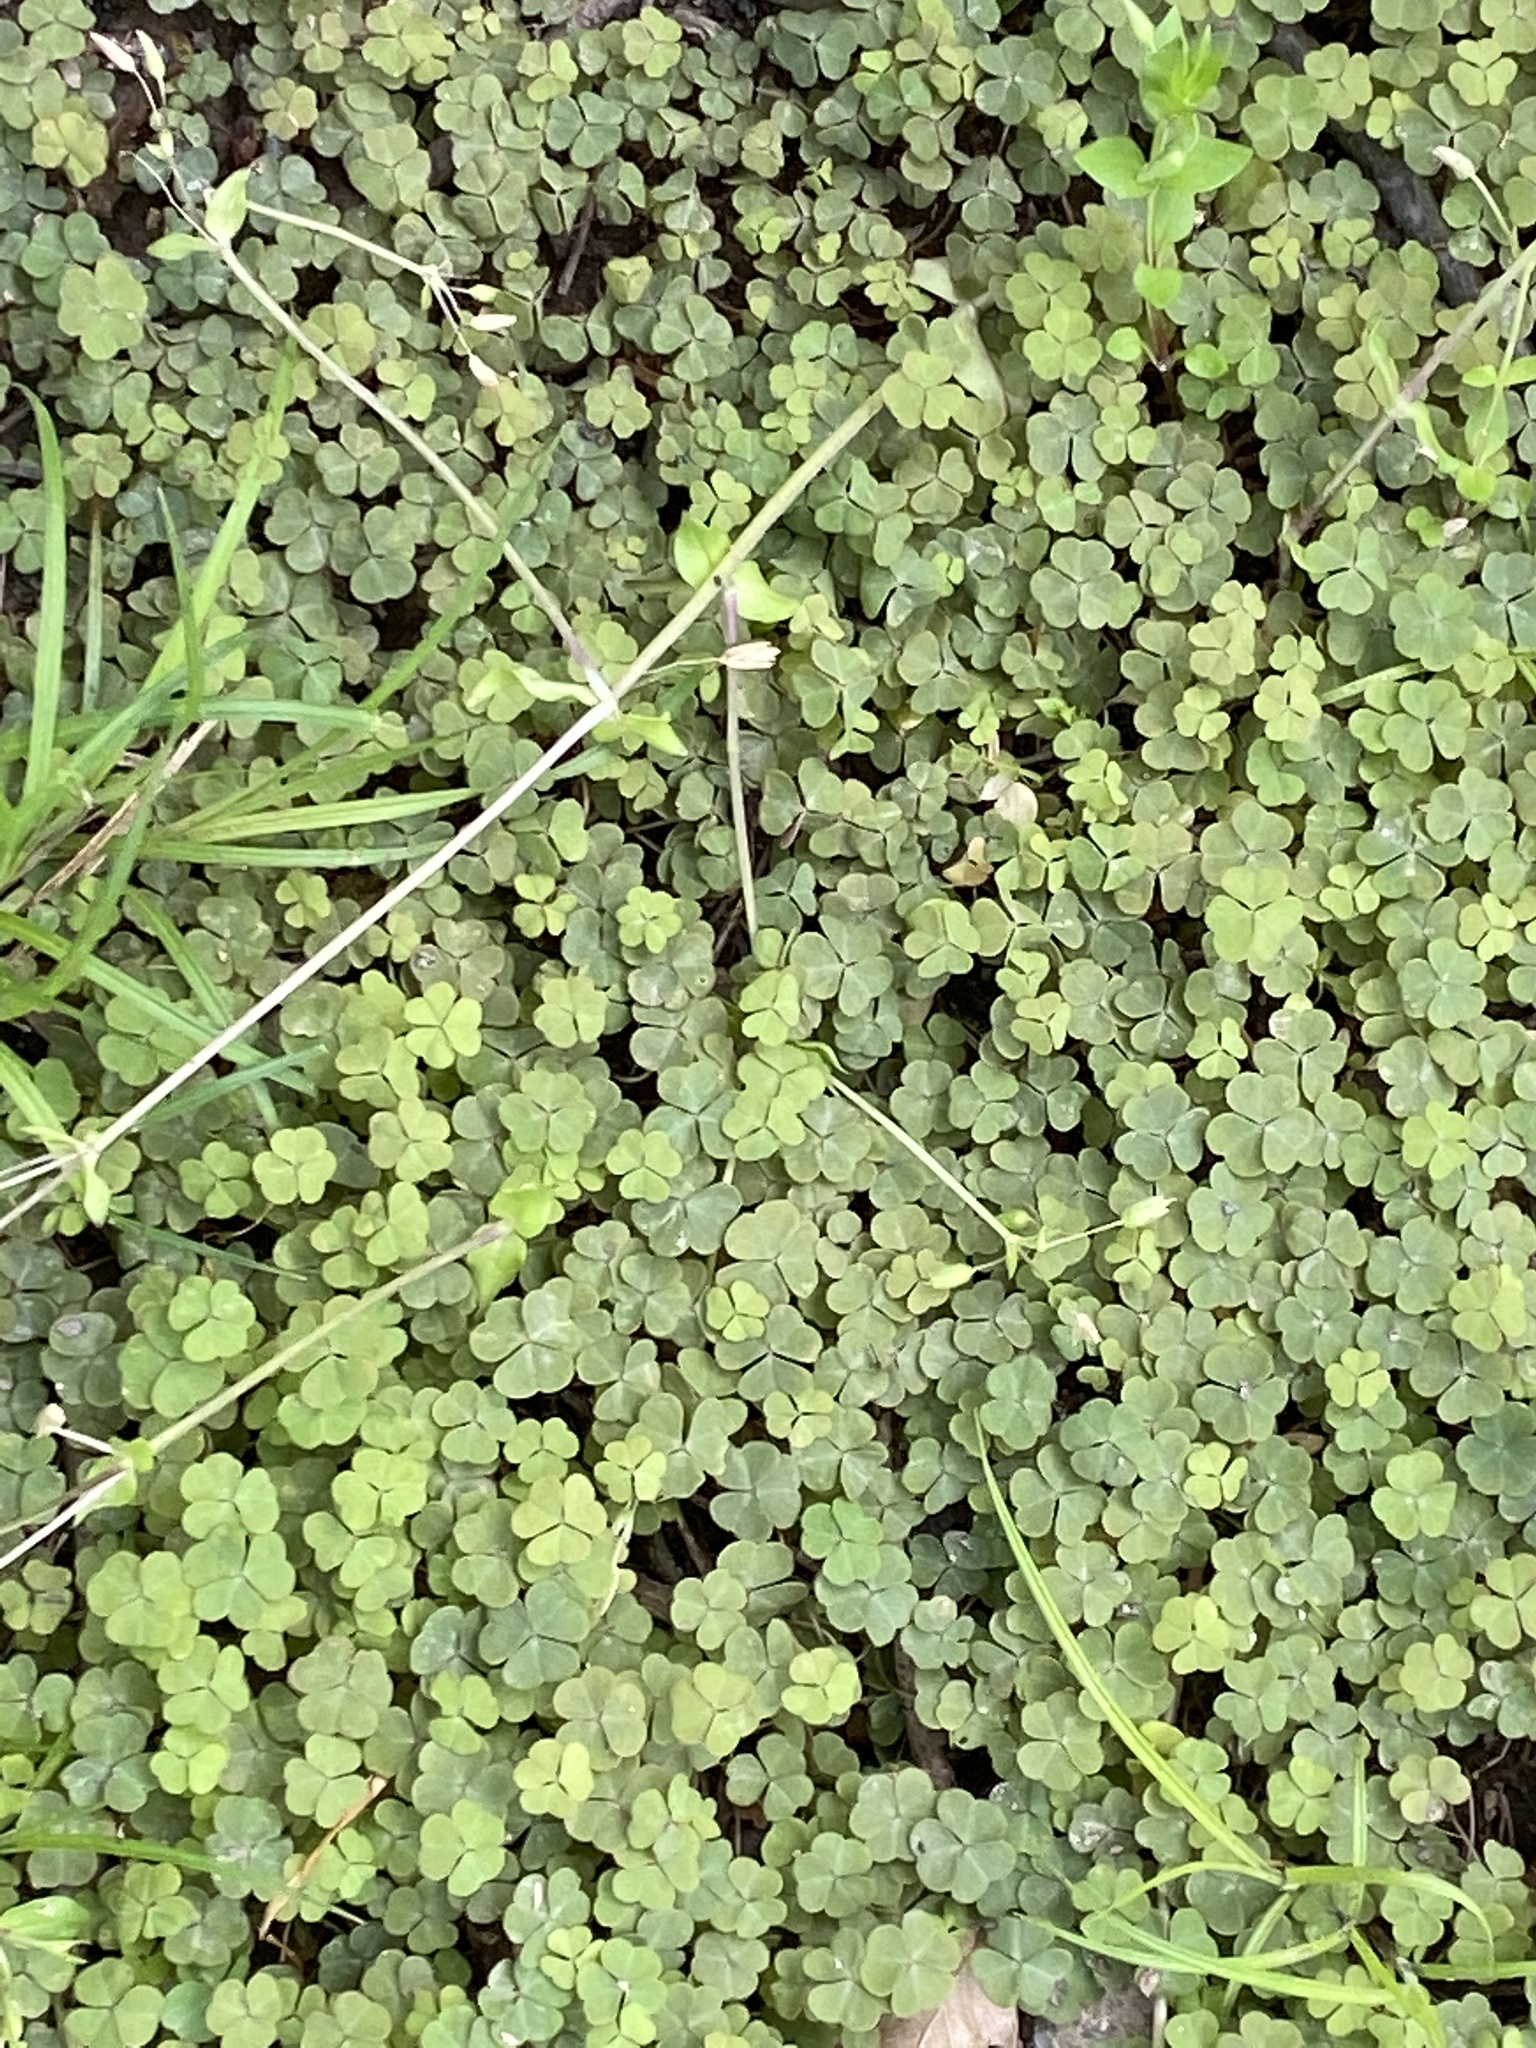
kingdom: Plantae
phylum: Tracheophyta
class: Magnoliopsida
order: Oxalidales
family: Oxalidaceae
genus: Oxalis
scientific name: Oxalis corniculata
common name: Procumbent yellow-sorrel
